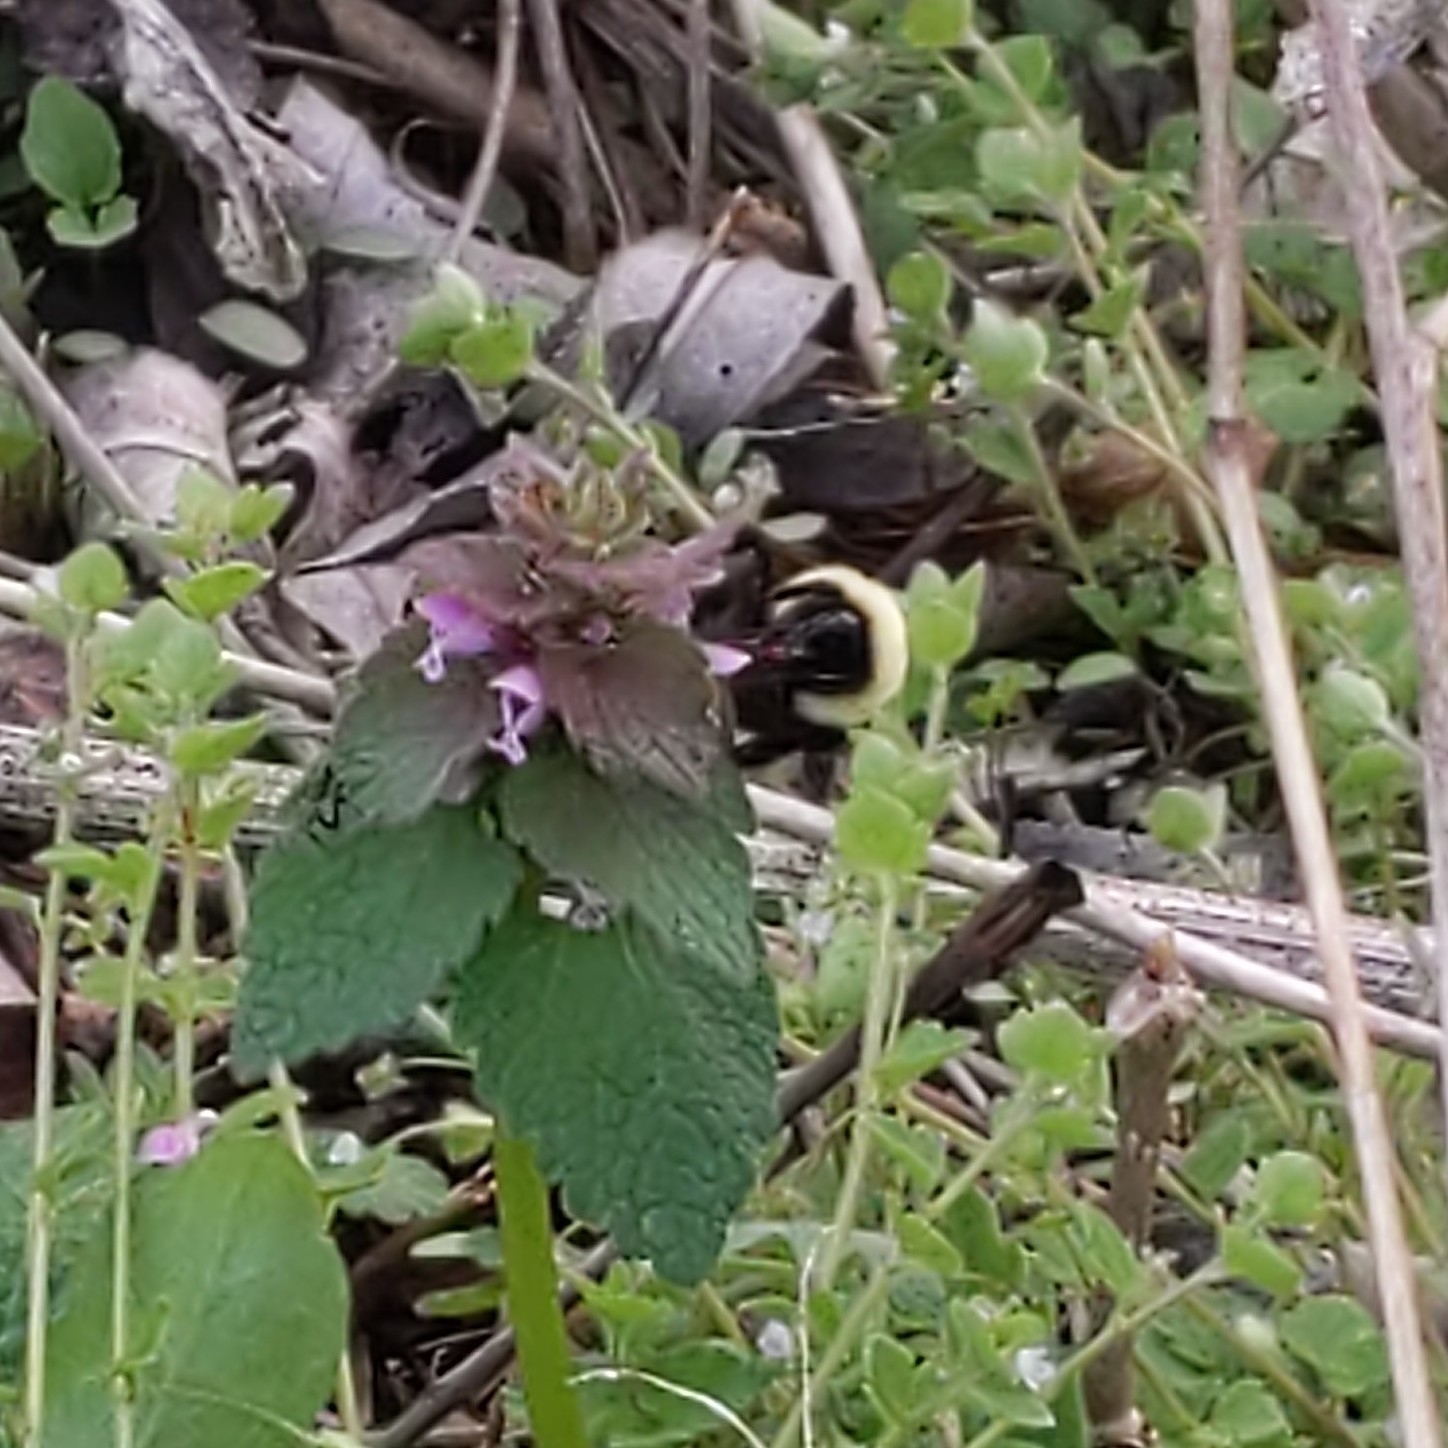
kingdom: Animalia
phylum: Arthropoda
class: Insecta
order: Hymenoptera
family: Apidae
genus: Bombus
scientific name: Bombus bimaculatus
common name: Two-spotted bumble bee
